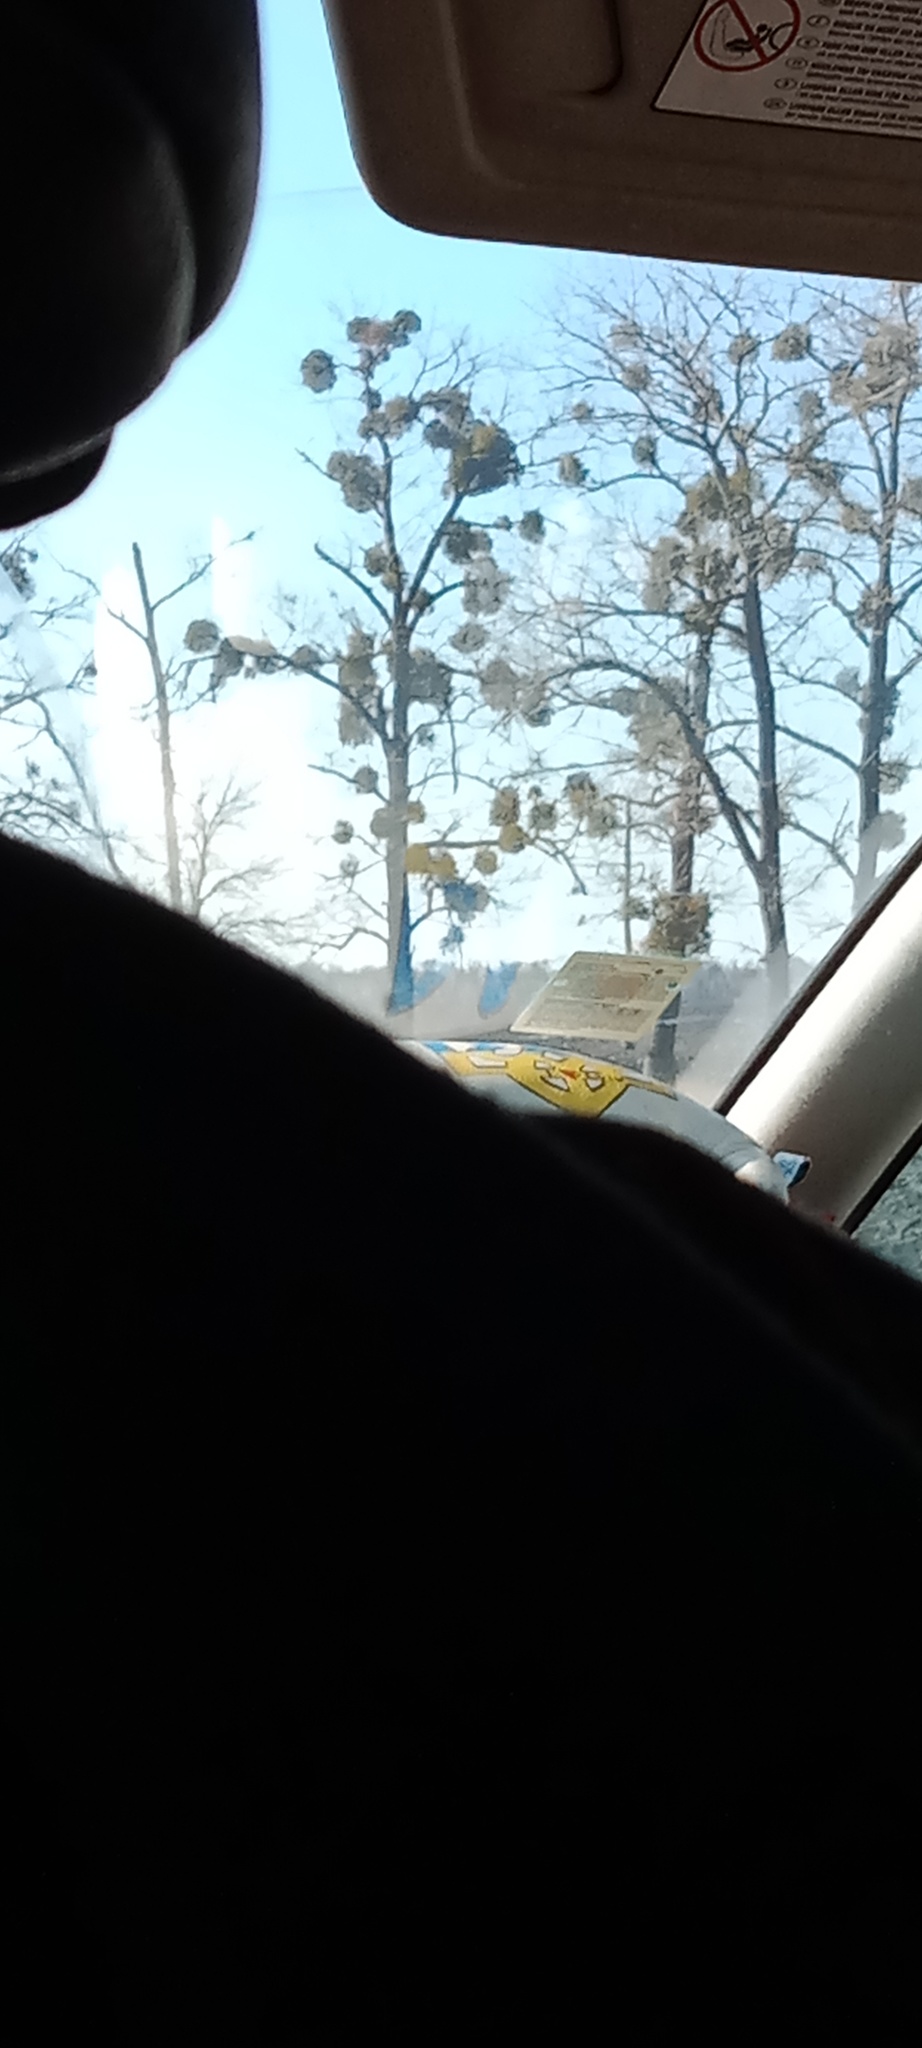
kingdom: Plantae
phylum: Tracheophyta
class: Magnoliopsida
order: Santalales
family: Viscaceae
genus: Viscum
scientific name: Viscum album
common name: Mistletoe
